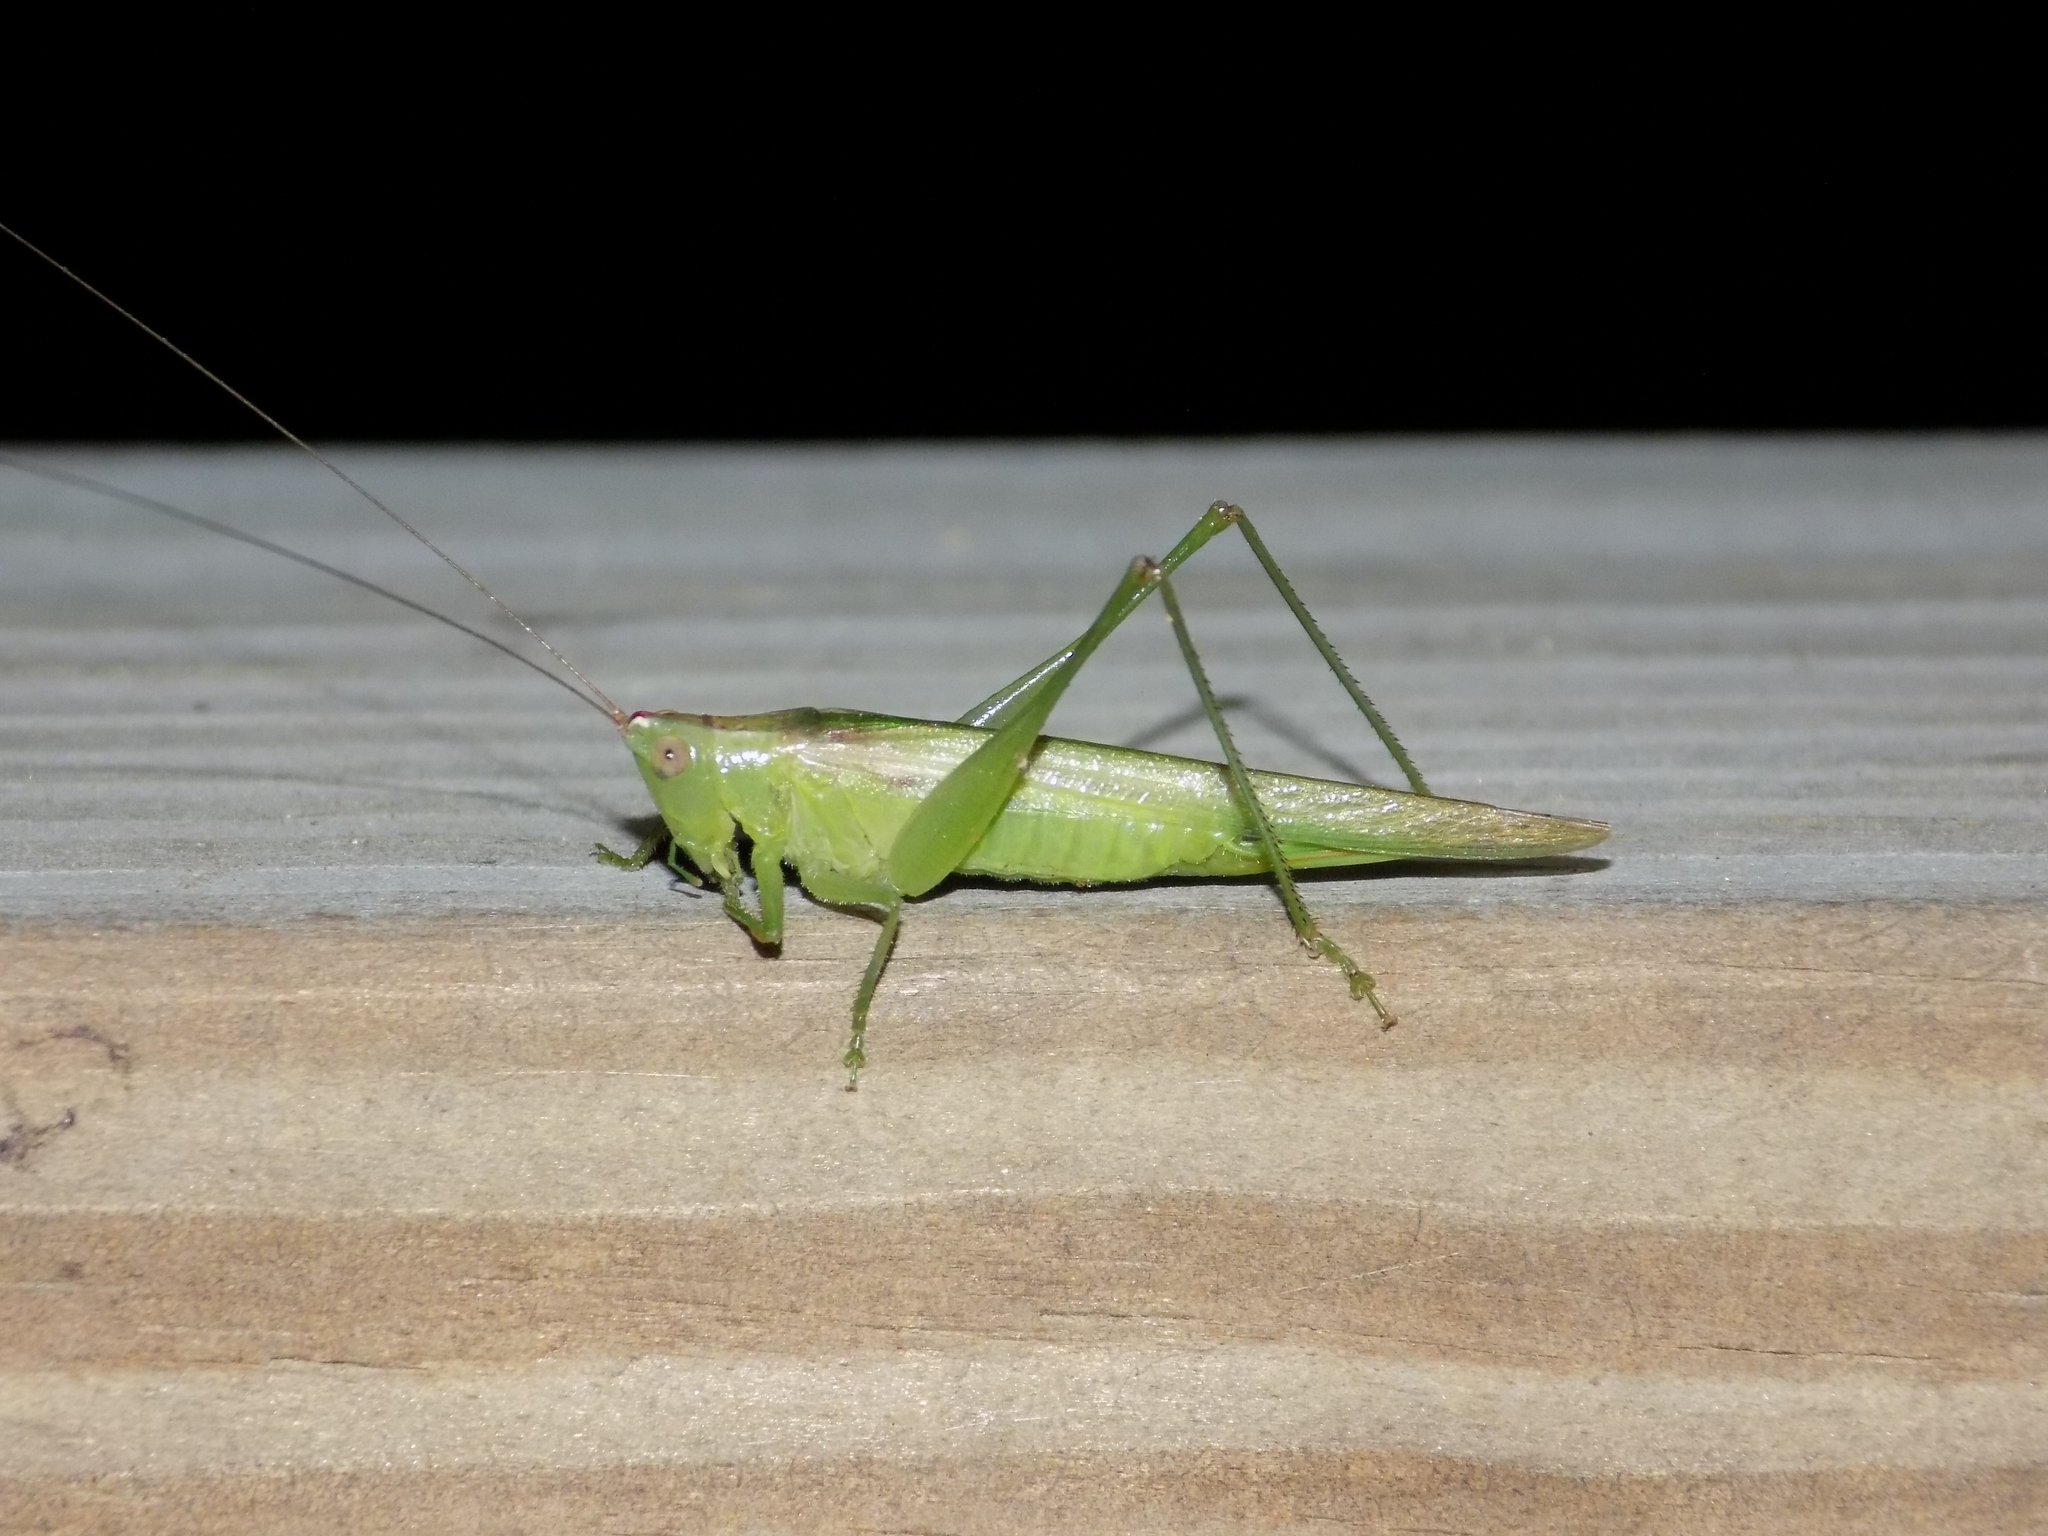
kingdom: Animalia
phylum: Arthropoda
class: Insecta
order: Orthoptera
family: Tettigoniidae
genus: Conocephalus
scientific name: Conocephalus fasciatus
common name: Slender meadow katydid
